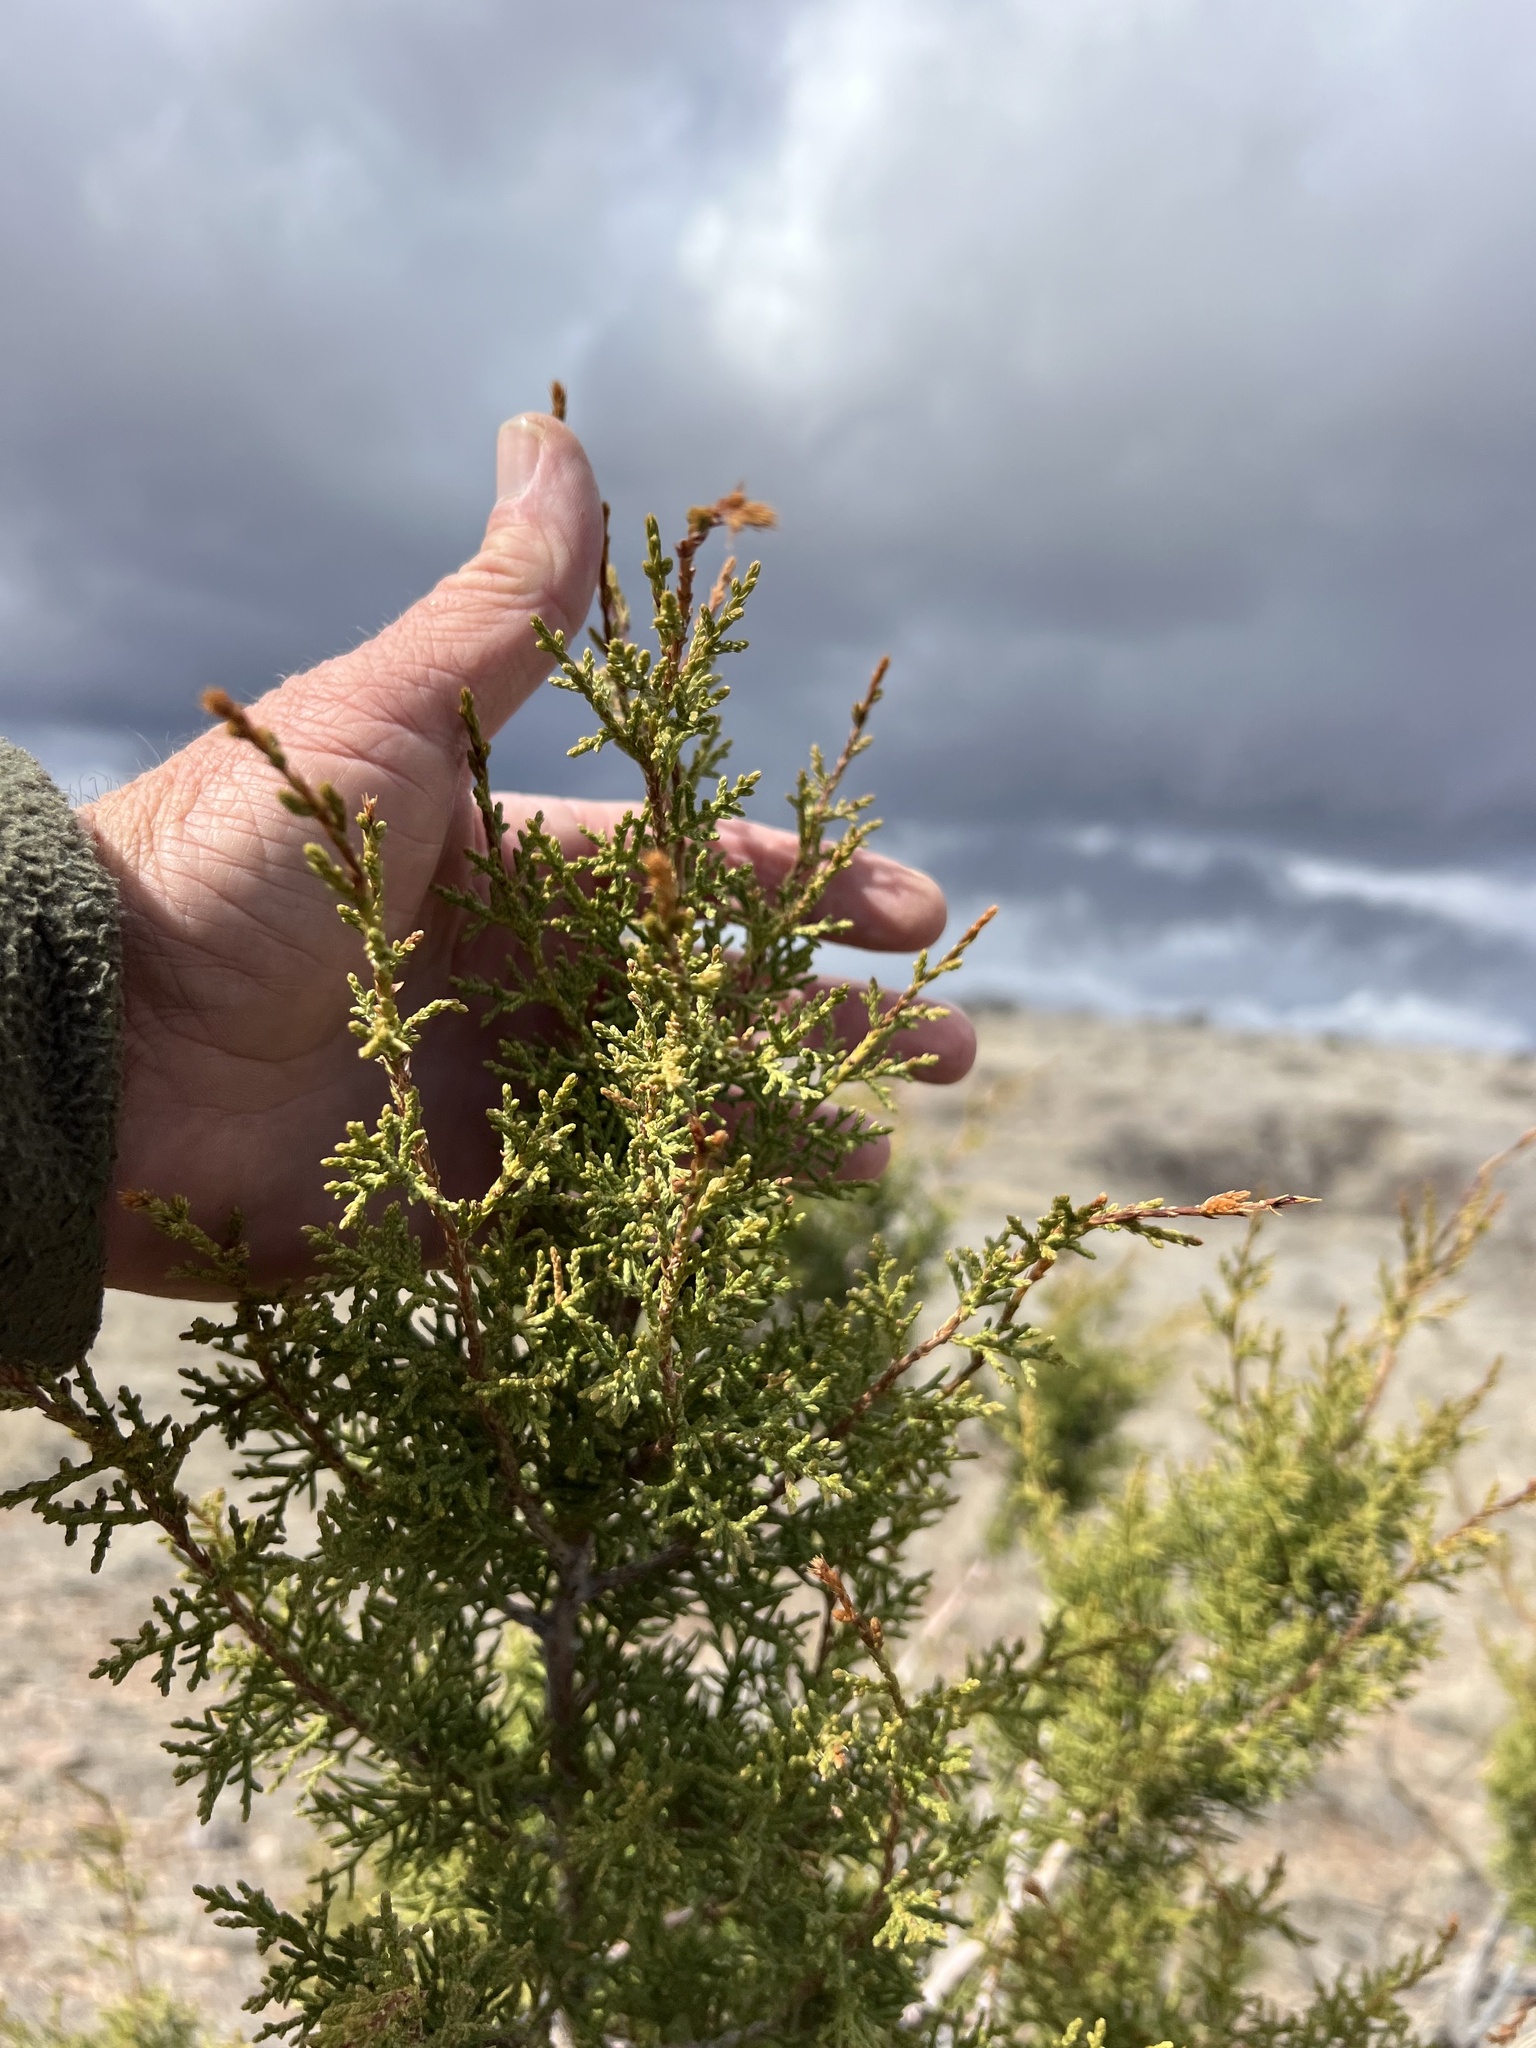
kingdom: Plantae
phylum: Tracheophyta
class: Pinopsida
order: Pinales
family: Cupressaceae
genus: Juniperus
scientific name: Juniperus arizonica
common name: Arizona juniper
